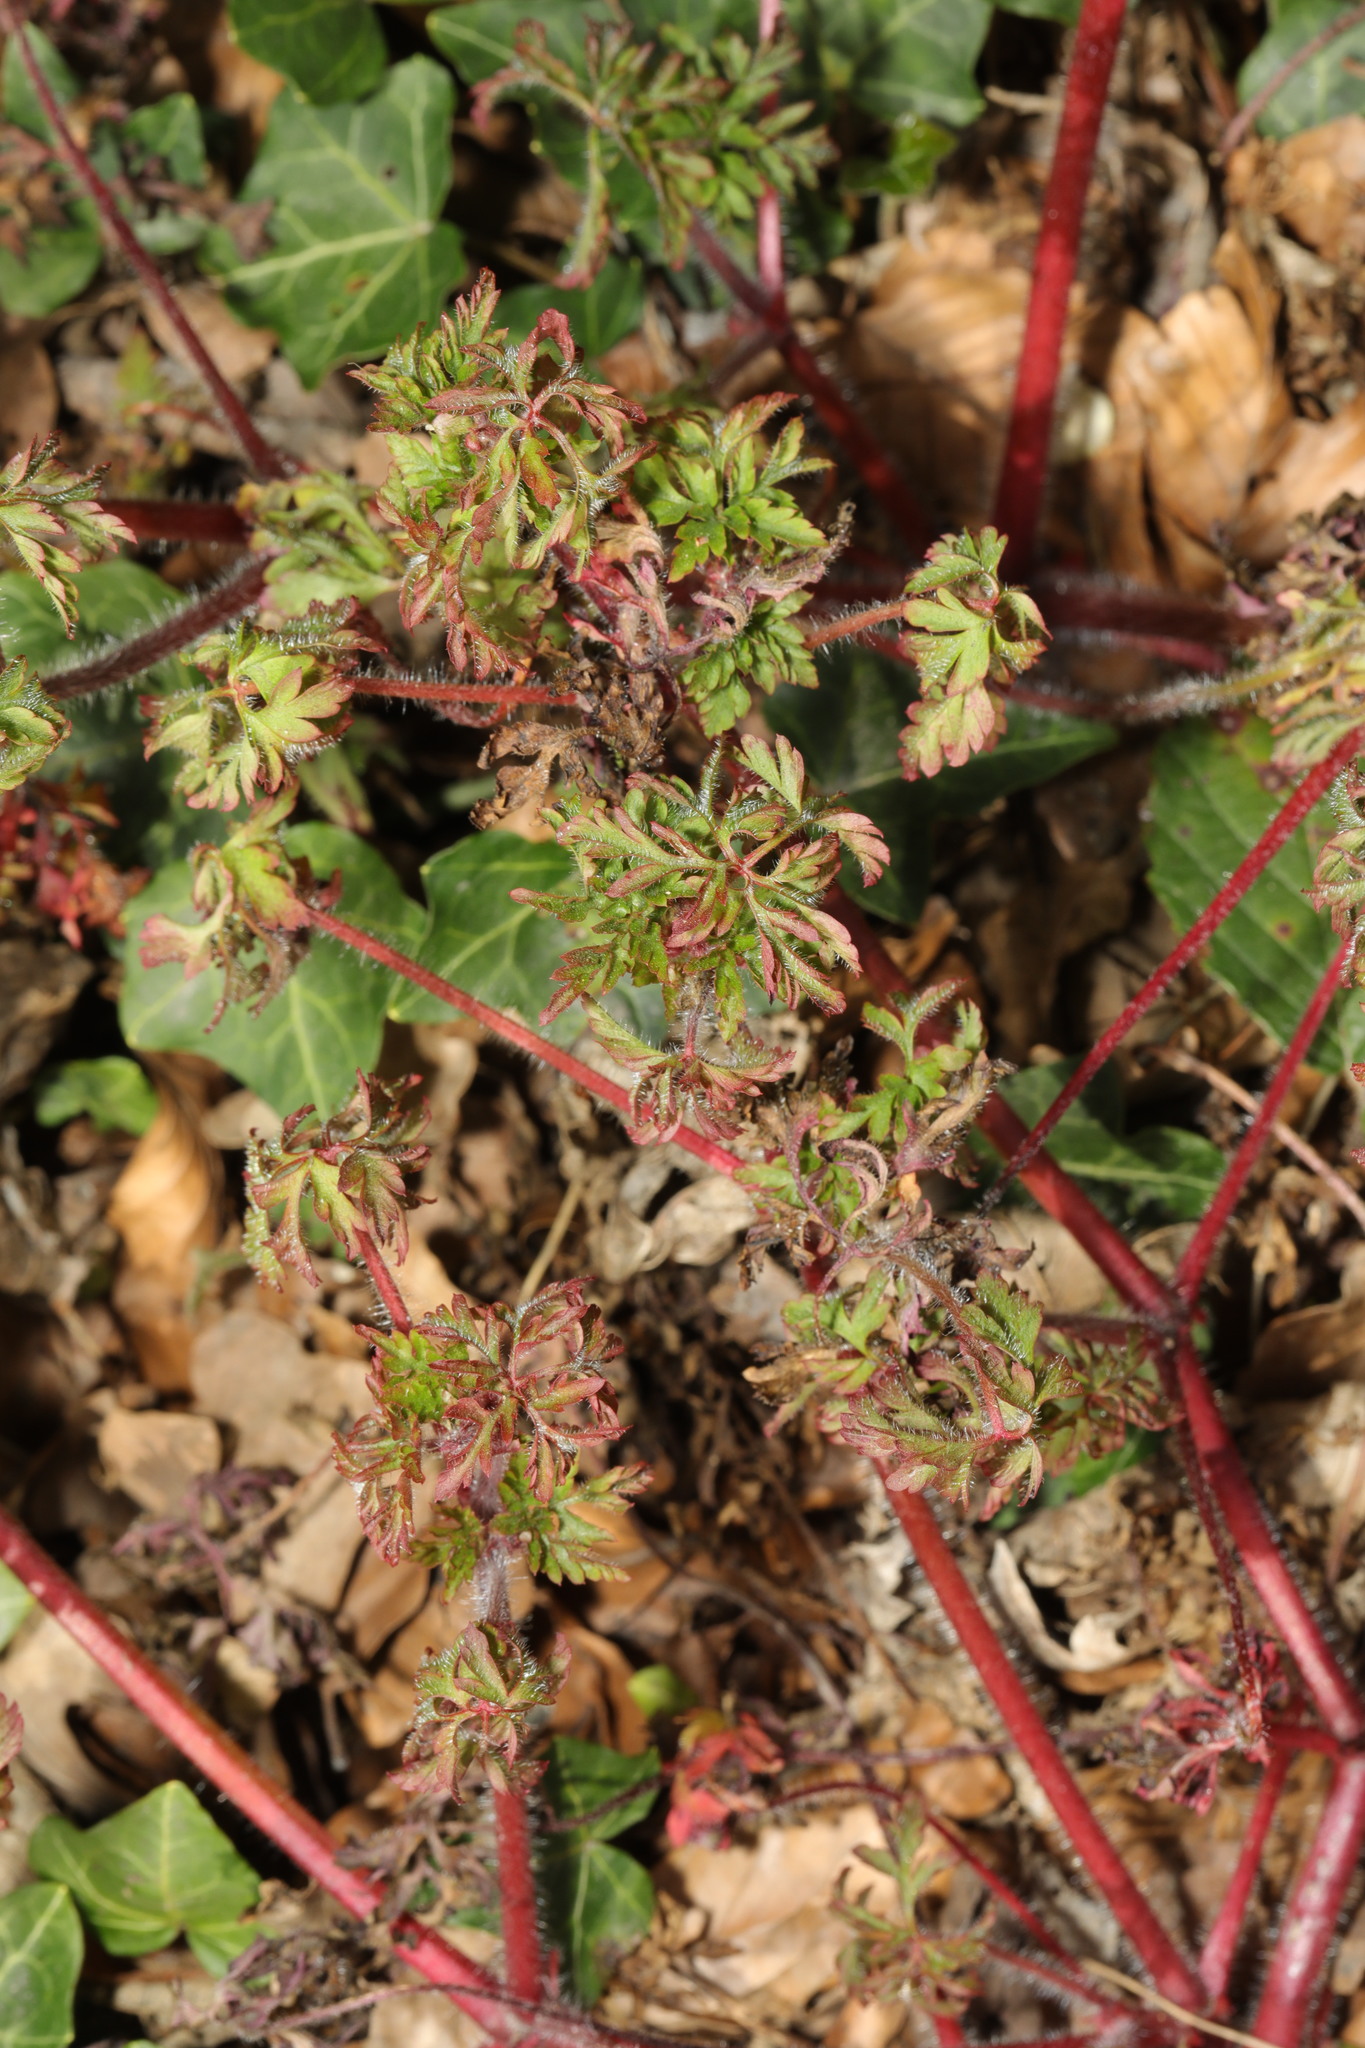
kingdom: Plantae
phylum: Tracheophyta
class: Magnoliopsida
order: Geraniales
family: Geraniaceae
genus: Geranium
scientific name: Geranium robertianum
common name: Herb-robert
